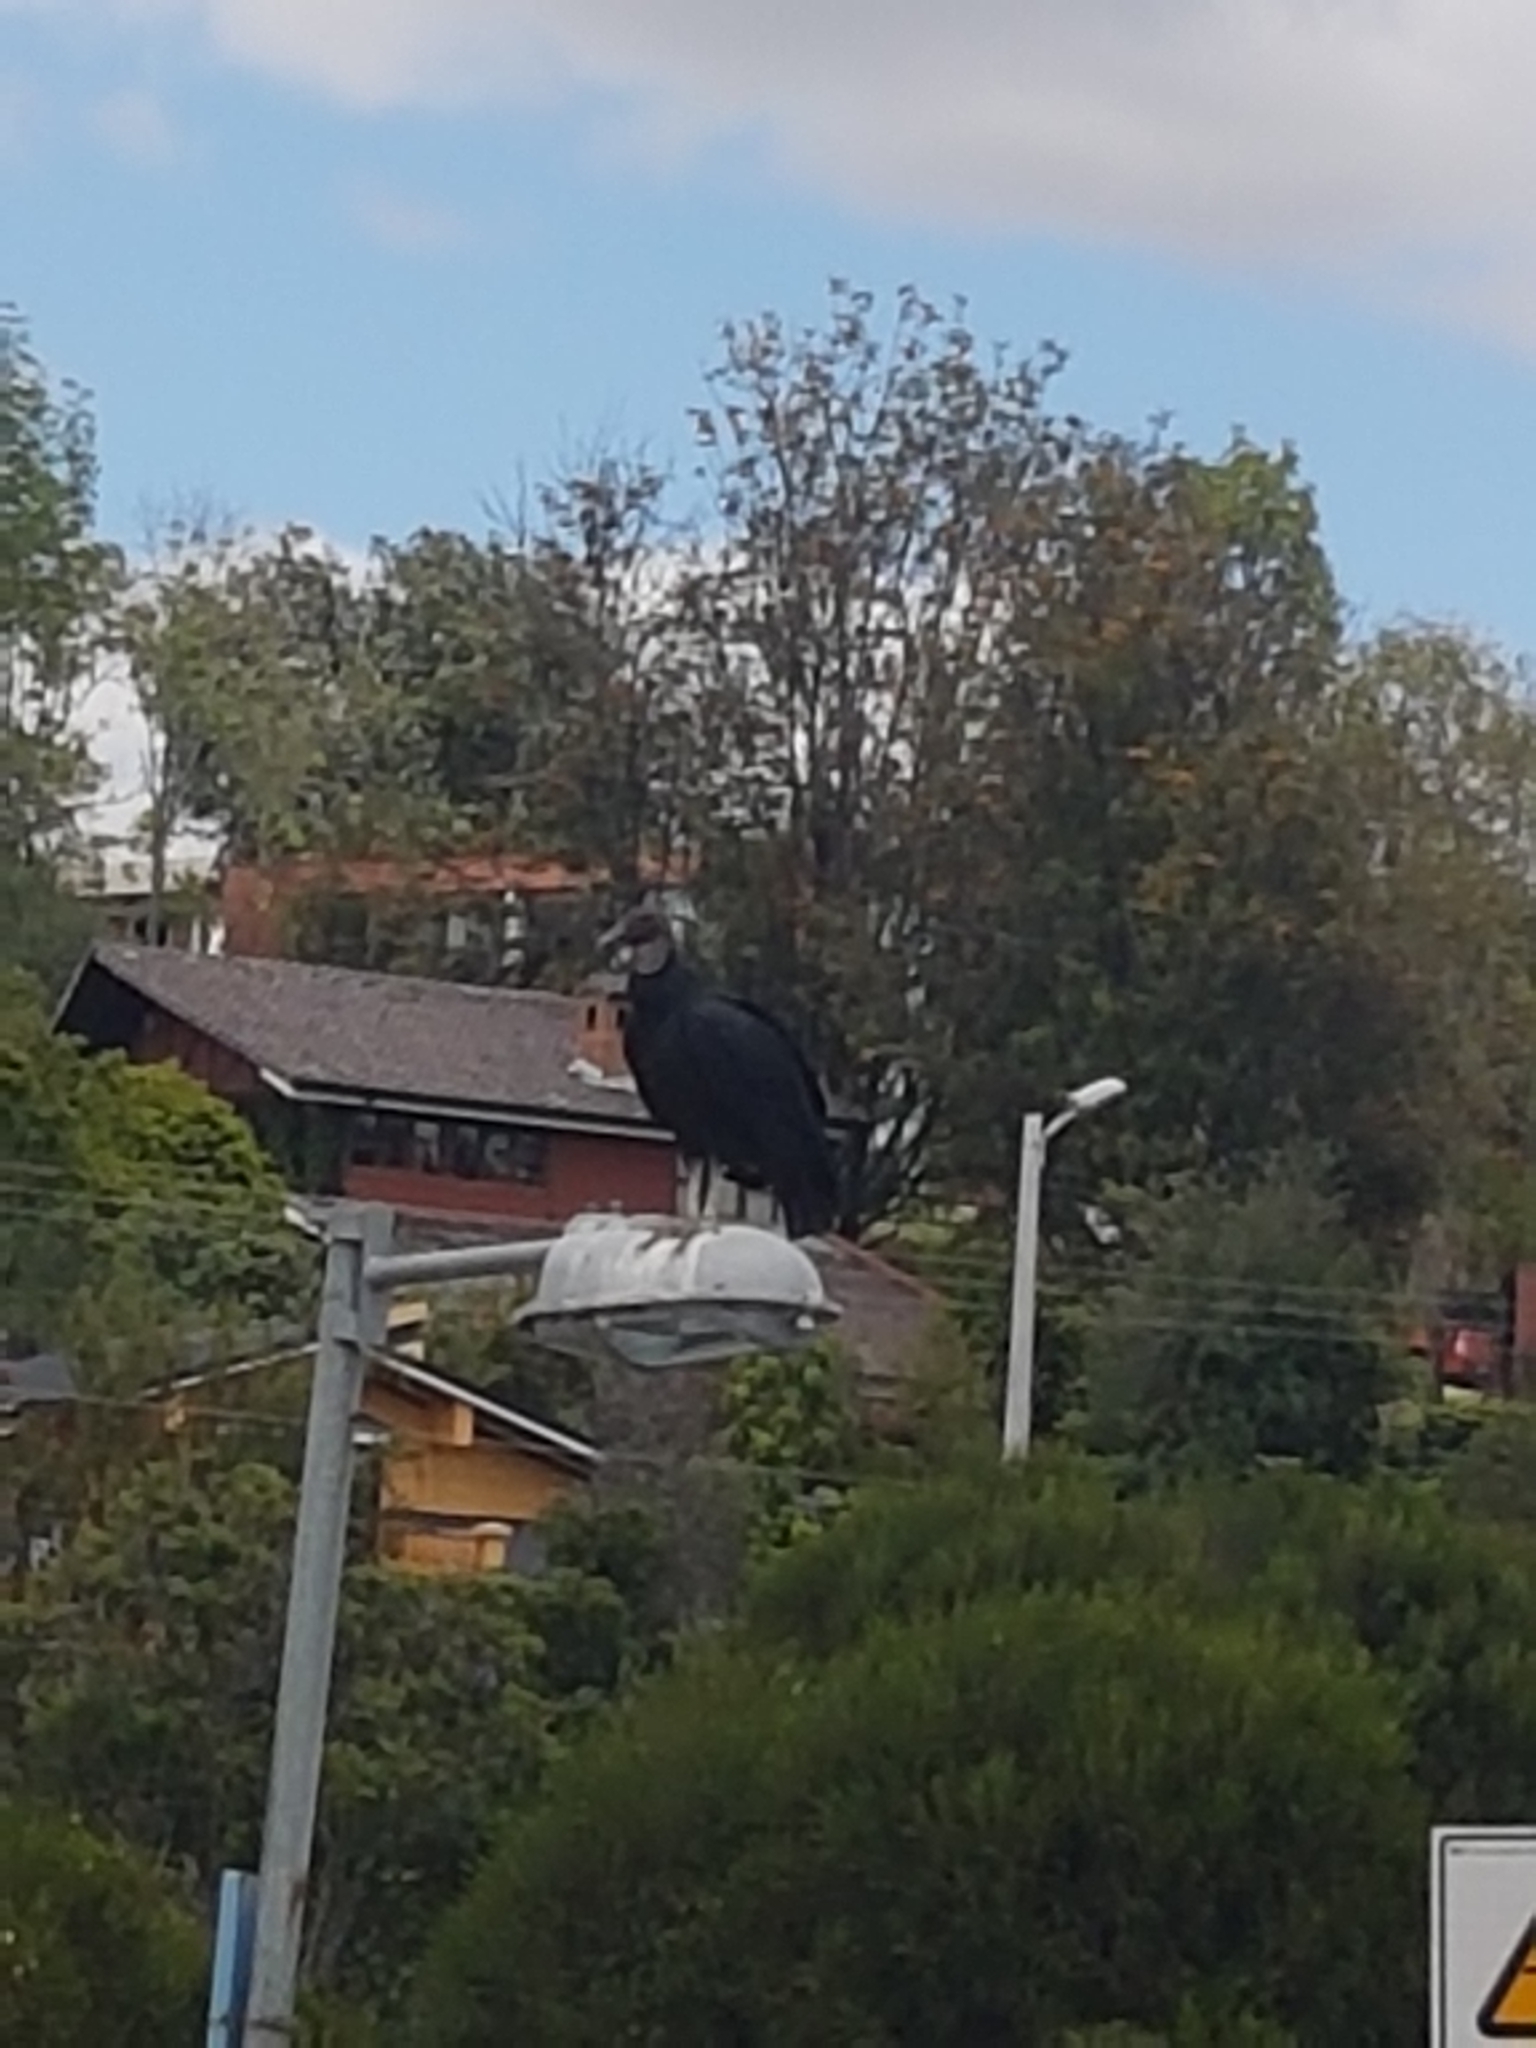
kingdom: Animalia
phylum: Chordata
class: Aves
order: Accipitriformes
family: Cathartidae
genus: Coragyps
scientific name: Coragyps atratus
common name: Black vulture
